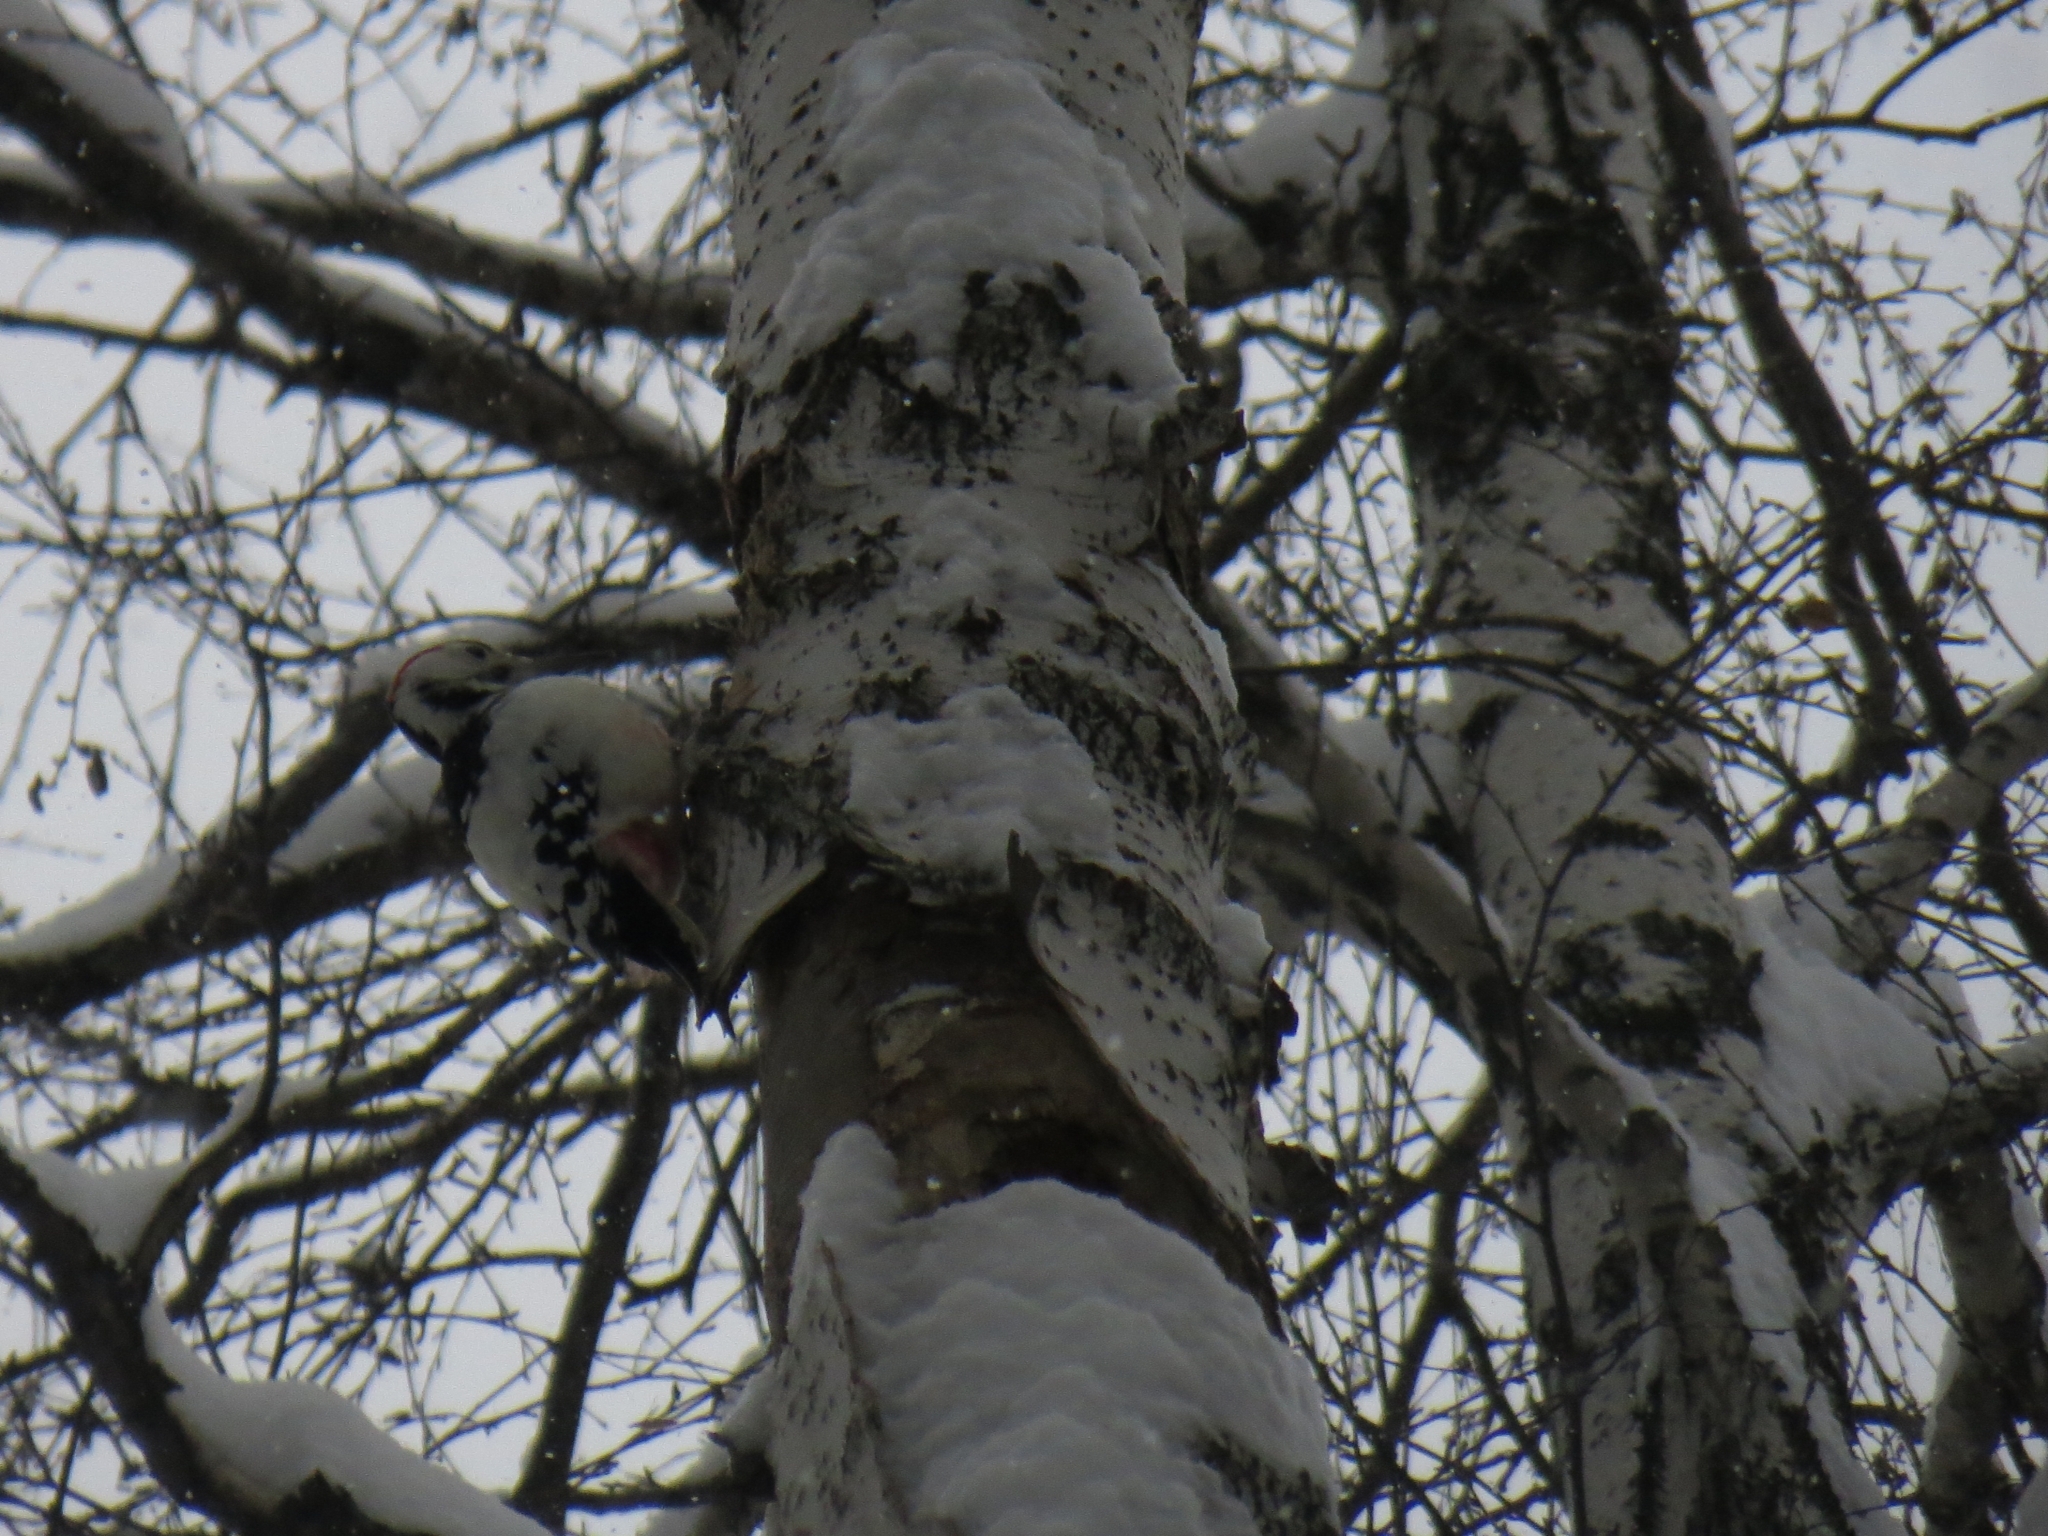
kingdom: Animalia
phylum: Chordata
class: Aves
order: Piciformes
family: Picidae
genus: Dendrocopos
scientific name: Dendrocopos leucotos
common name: White-backed woodpecker
